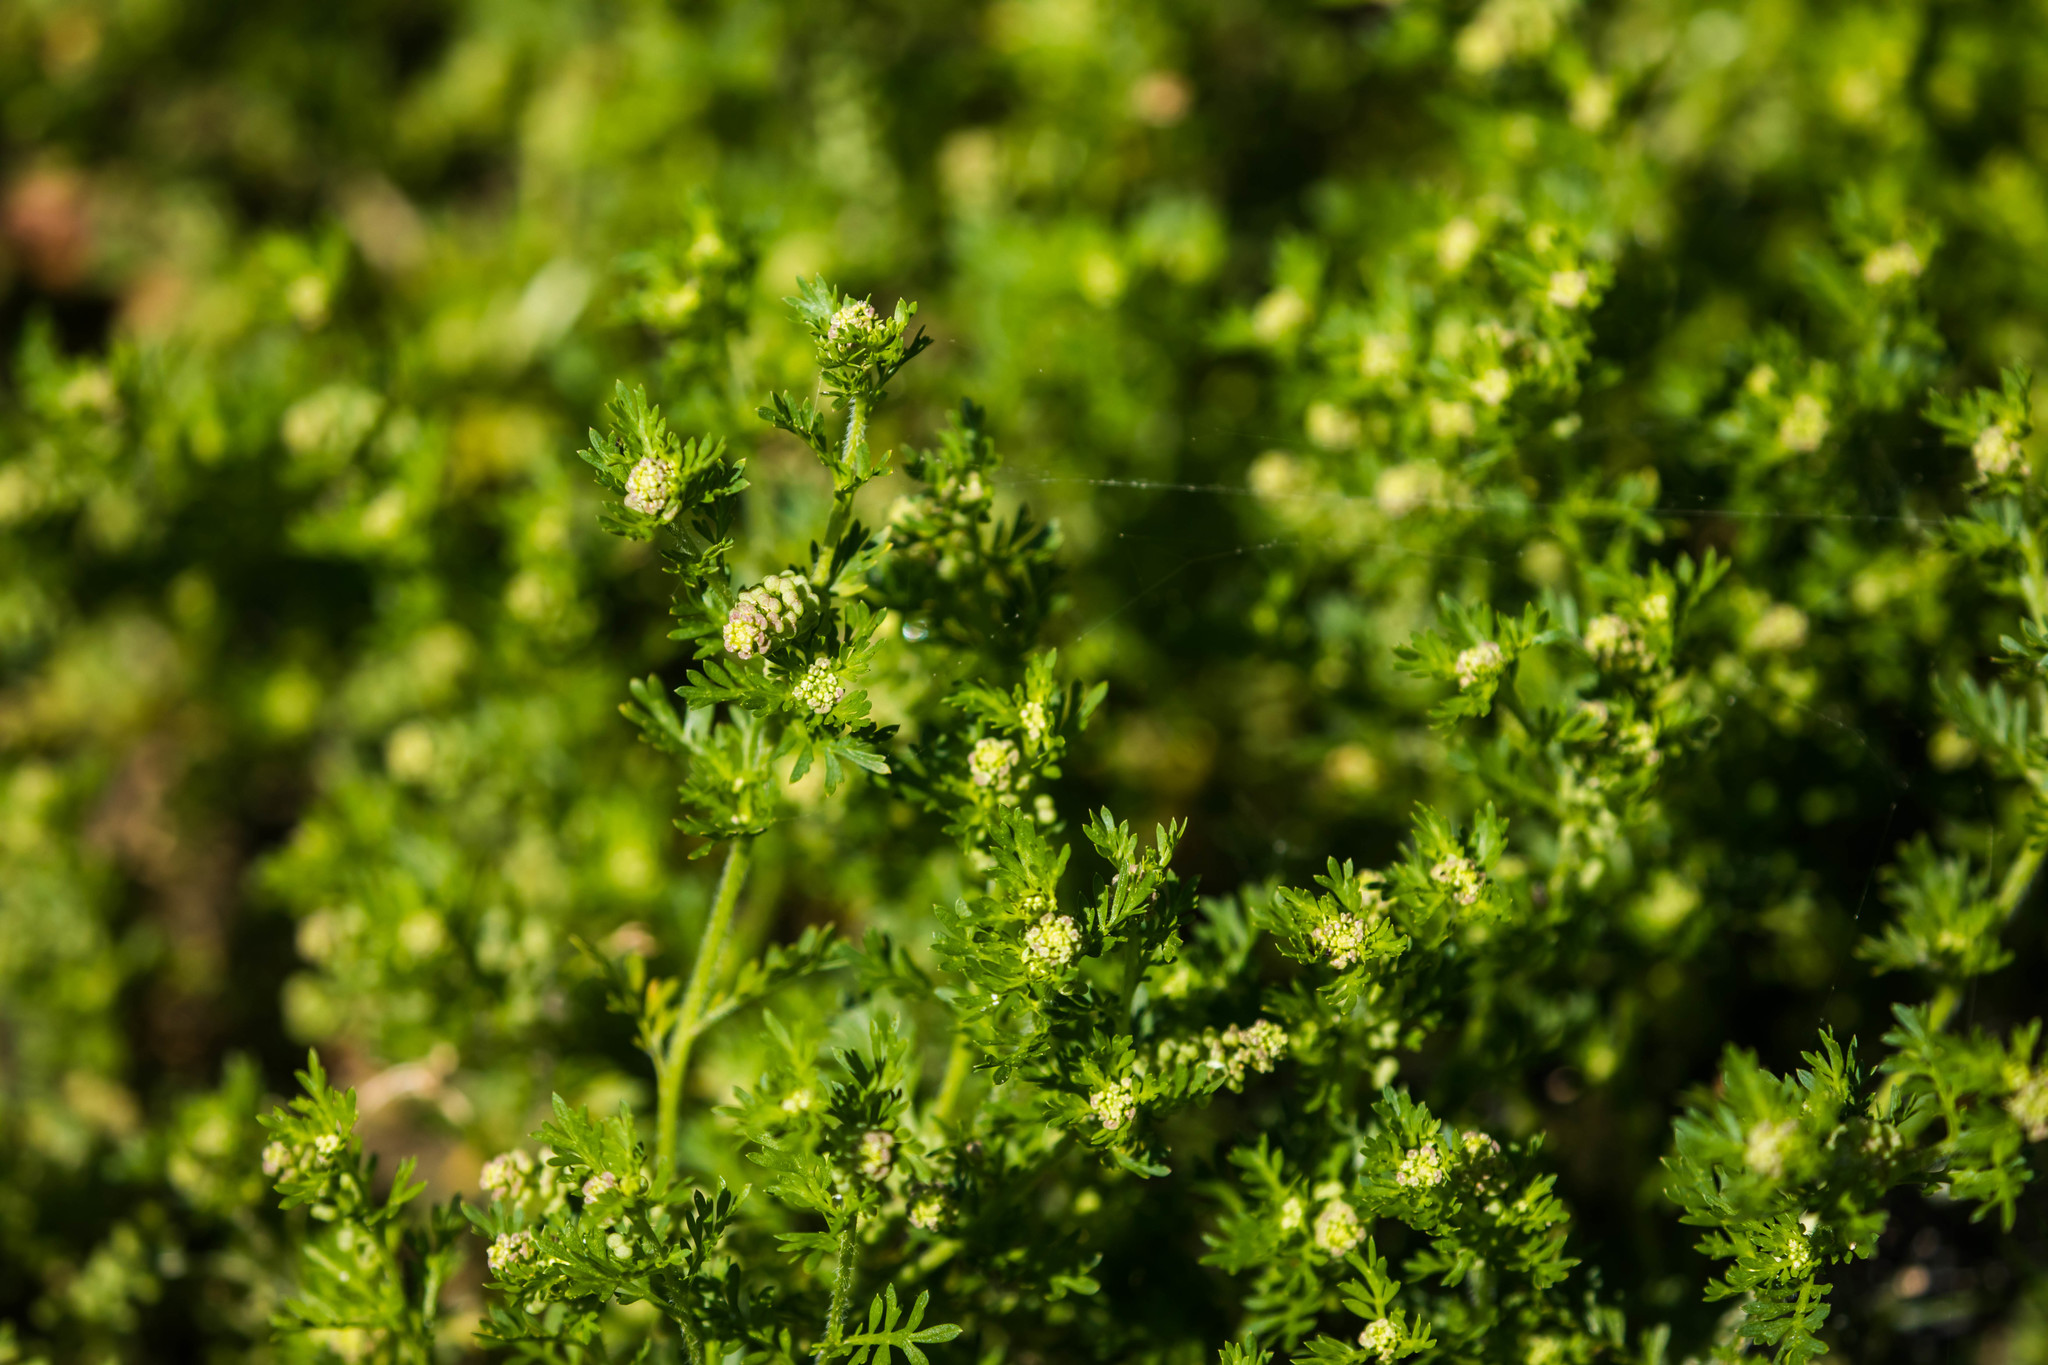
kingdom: Plantae
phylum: Tracheophyta
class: Magnoliopsida
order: Brassicales
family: Brassicaceae
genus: Lepidium
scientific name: Lepidium didymum
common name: Lesser swinecress
